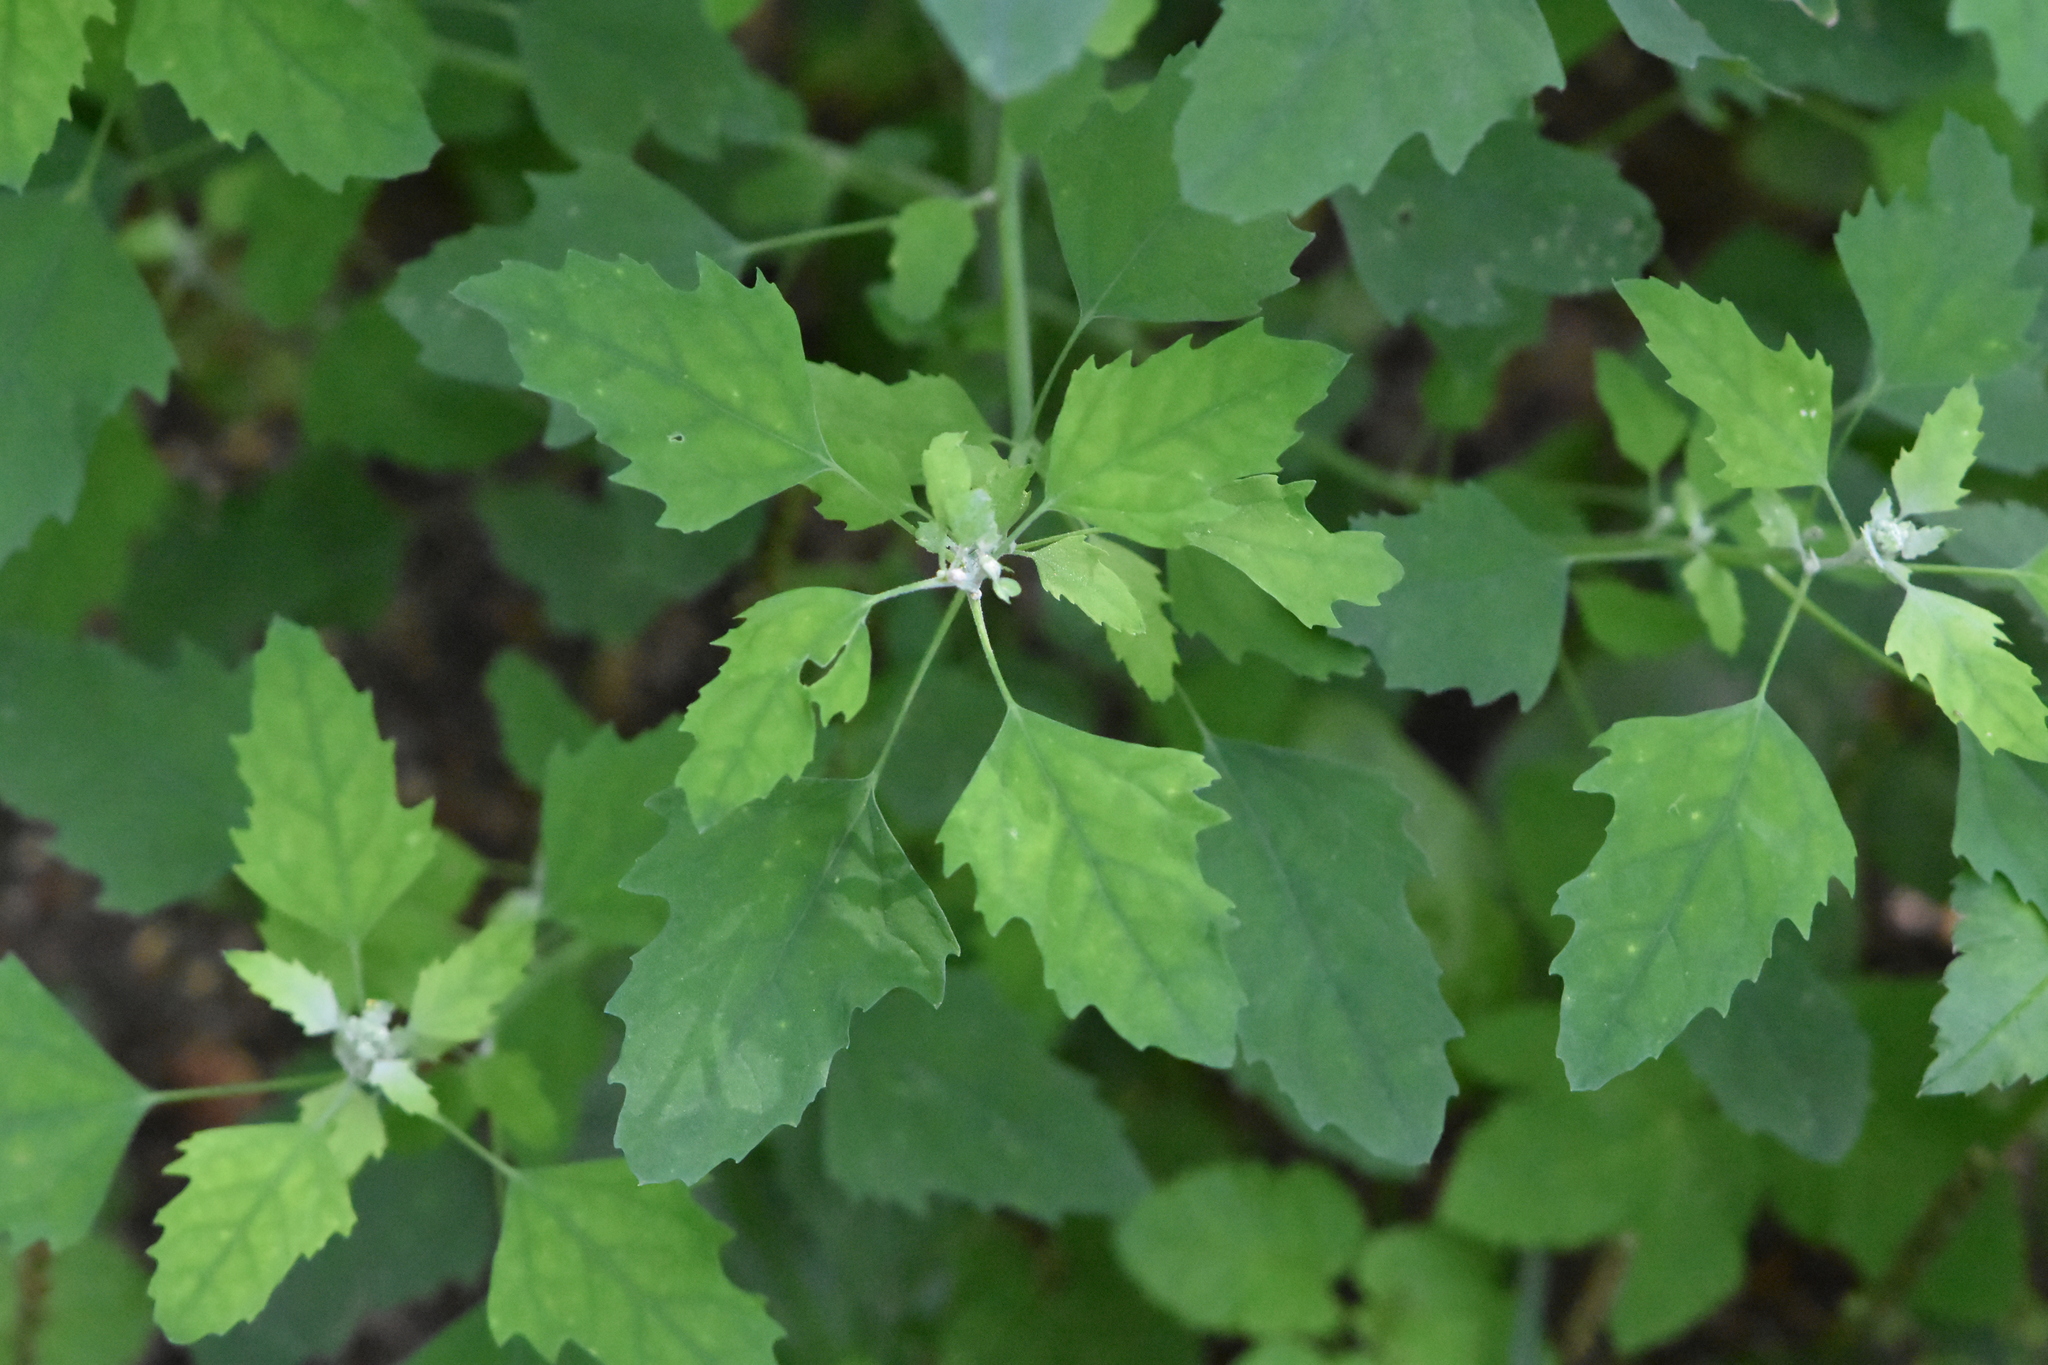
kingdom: Plantae
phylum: Tracheophyta
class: Magnoliopsida
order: Caryophyllales
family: Amaranthaceae
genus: Chenopodium
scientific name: Chenopodium album
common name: Fat-hen
